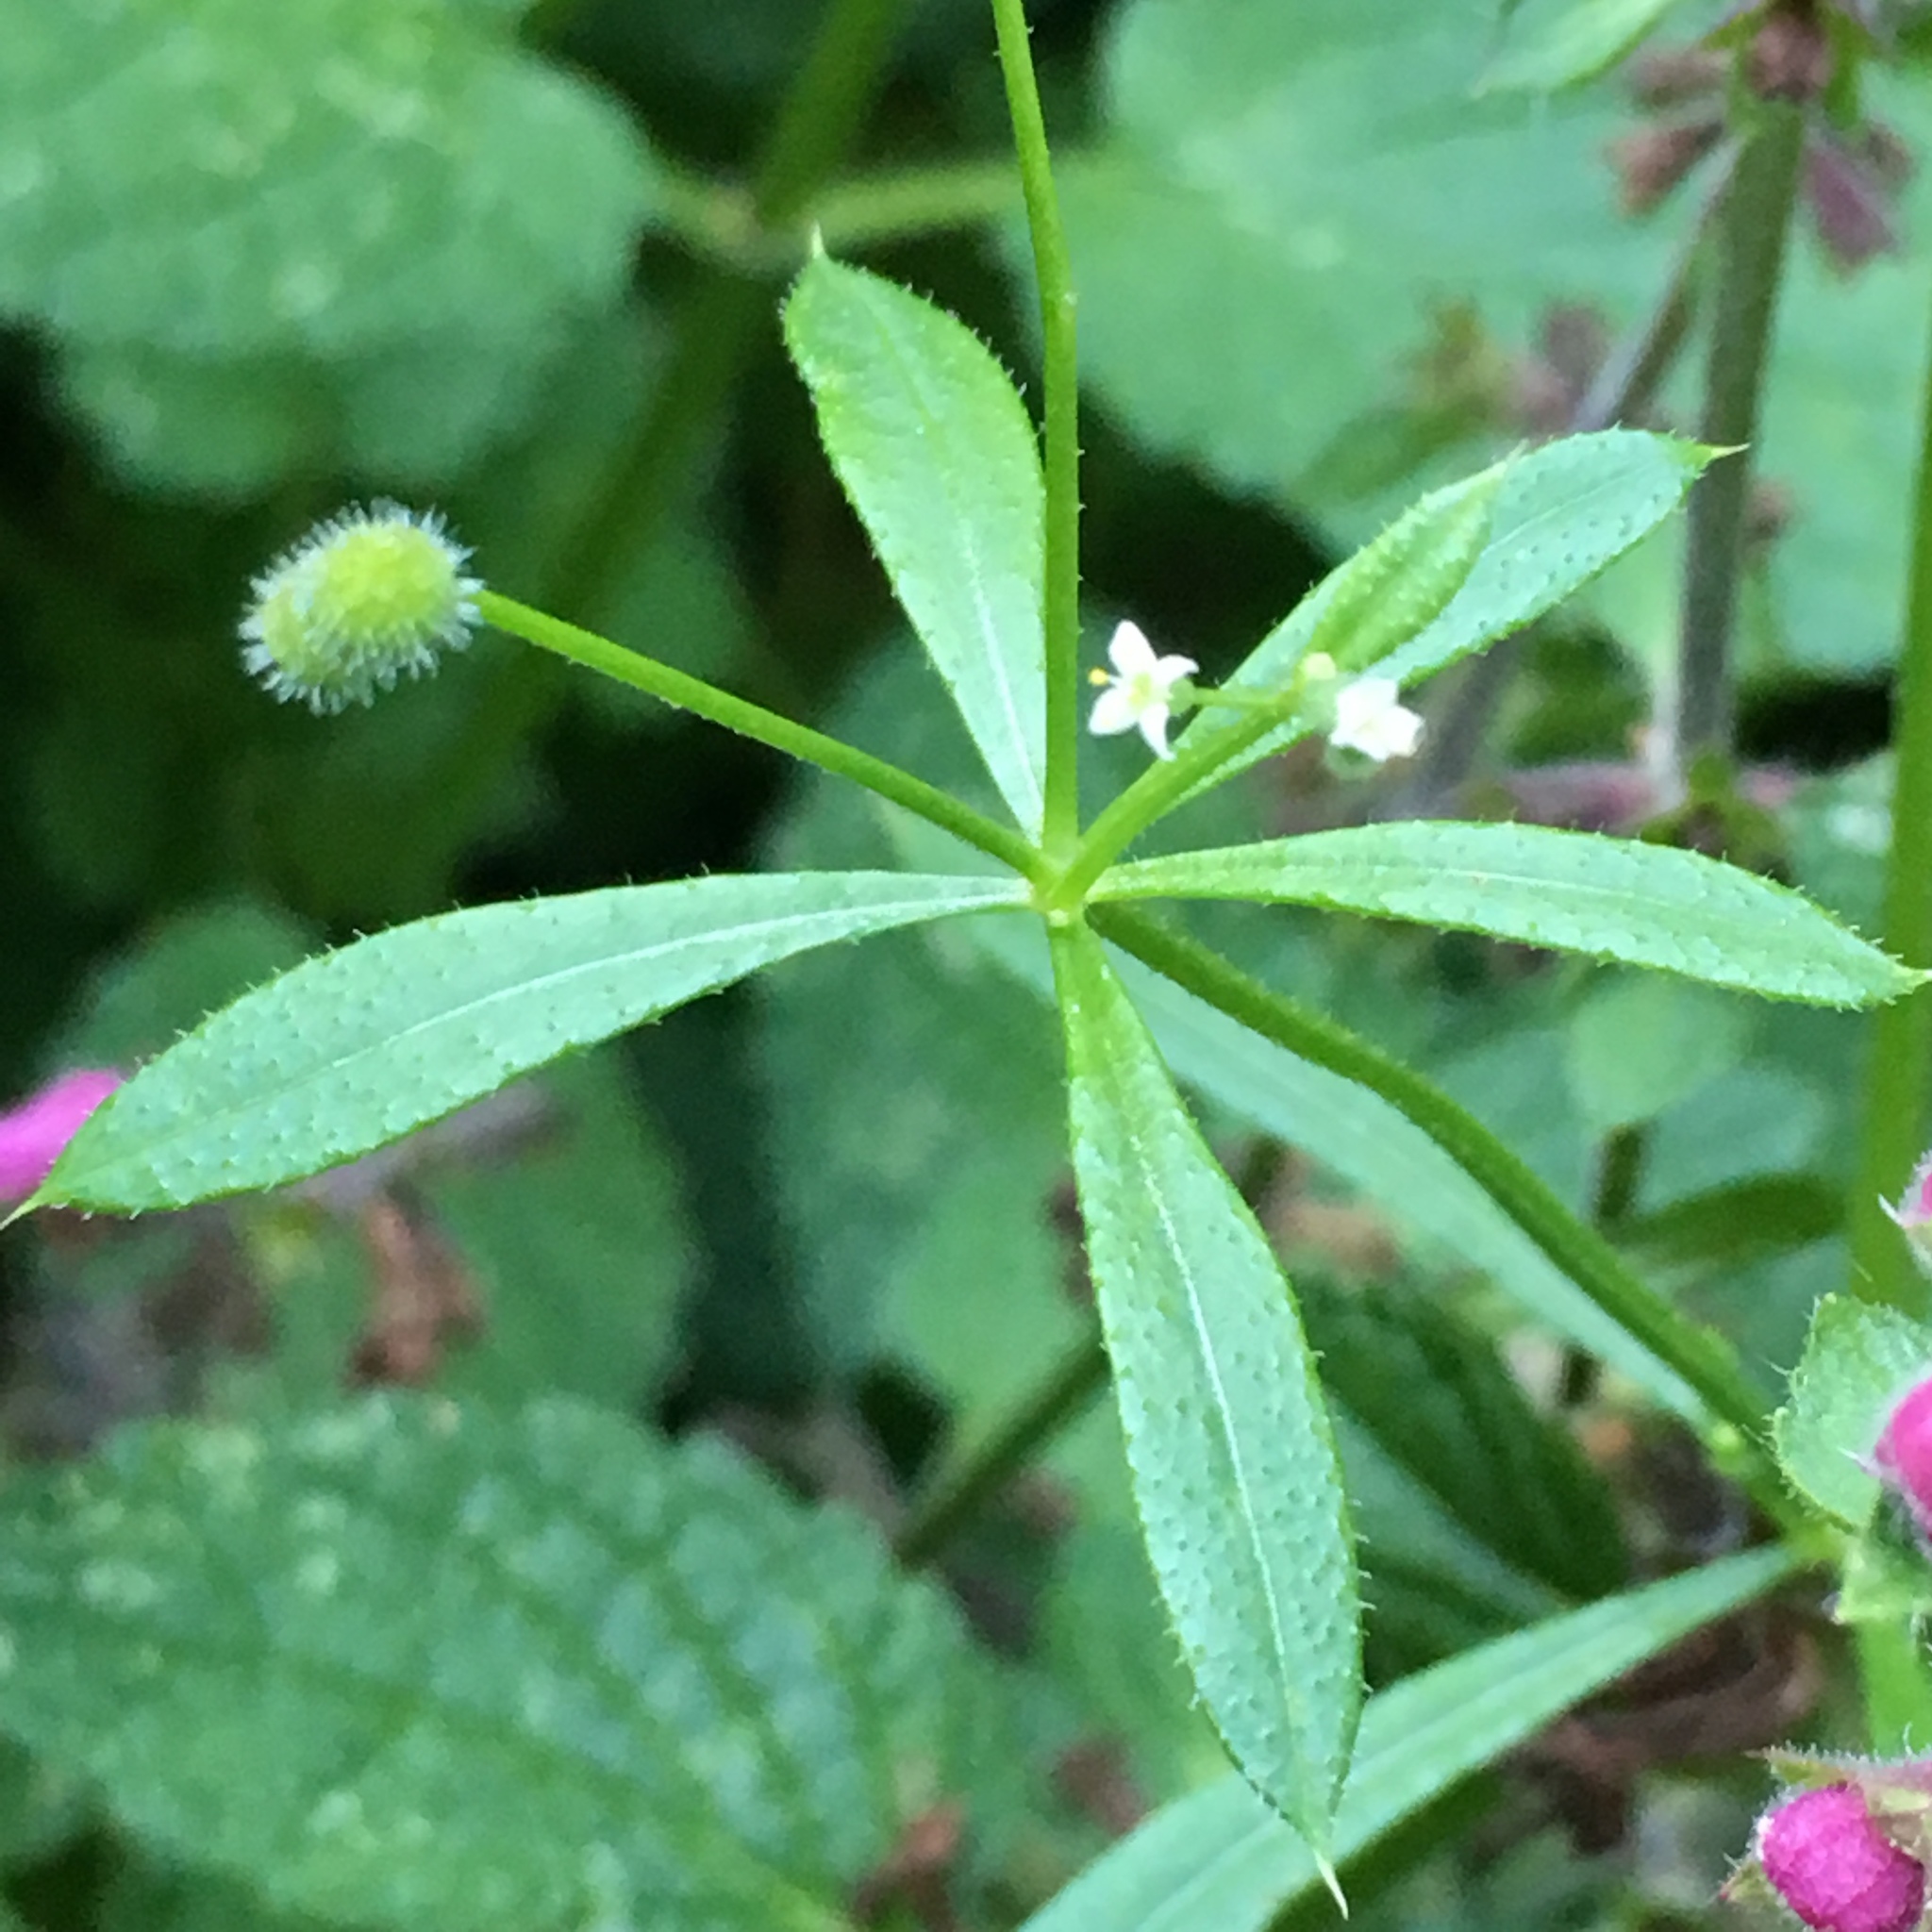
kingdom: Plantae
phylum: Tracheophyta
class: Magnoliopsida
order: Gentianales
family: Rubiaceae
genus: Galium
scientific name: Galium aparine
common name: Cleavers
